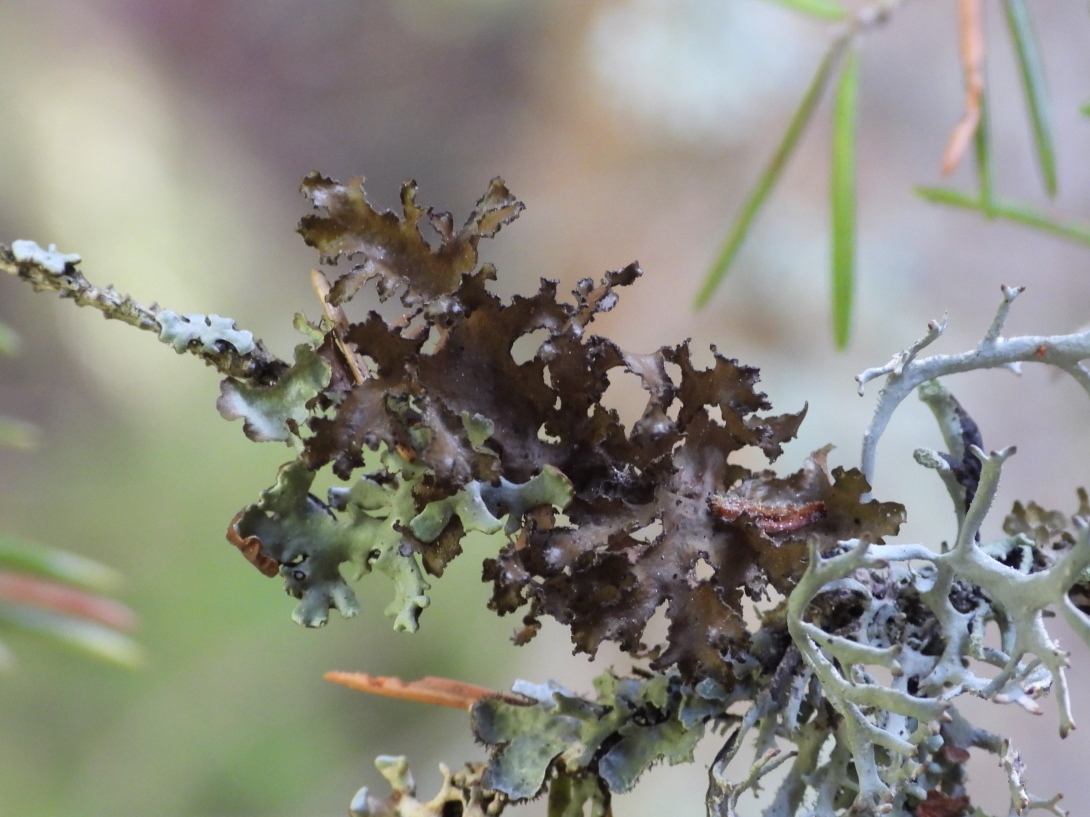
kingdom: Fungi
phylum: Ascomycota
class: Lecanoromycetes
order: Lecanorales
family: Parmeliaceae
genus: Nephromopsis
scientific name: Nephromopsis chlorophylla
